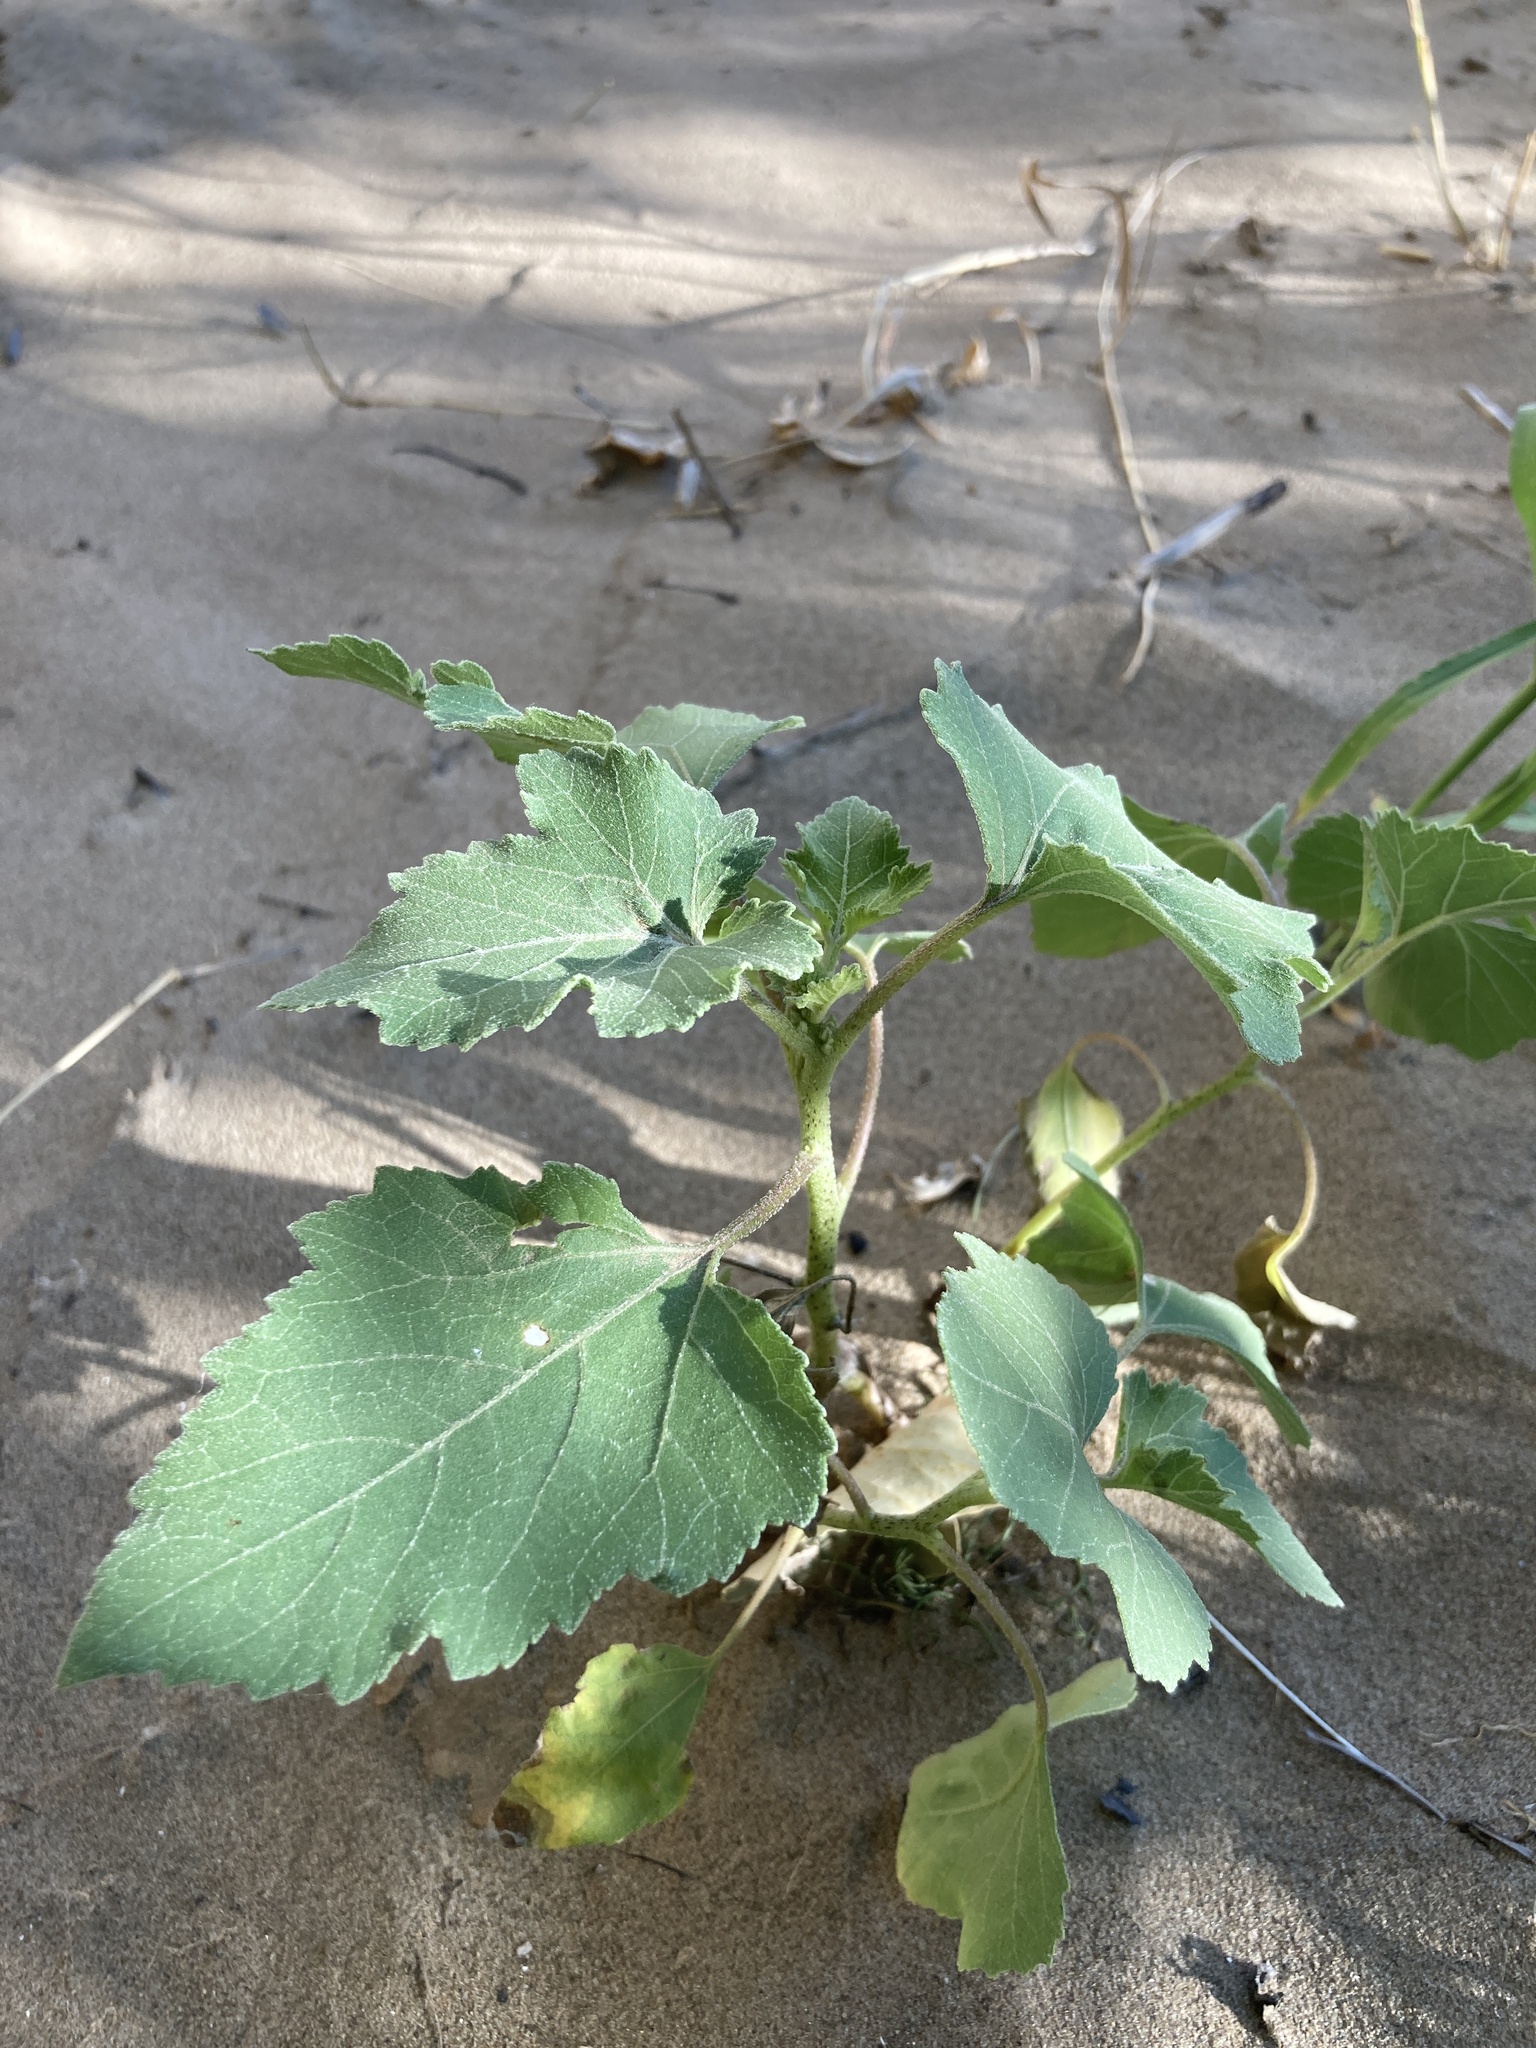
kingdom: Plantae
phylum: Tracheophyta
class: Magnoliopsida
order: Asterales
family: Asteraceae
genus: Xanthium
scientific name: Xanthium orientale
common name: Californian burr
